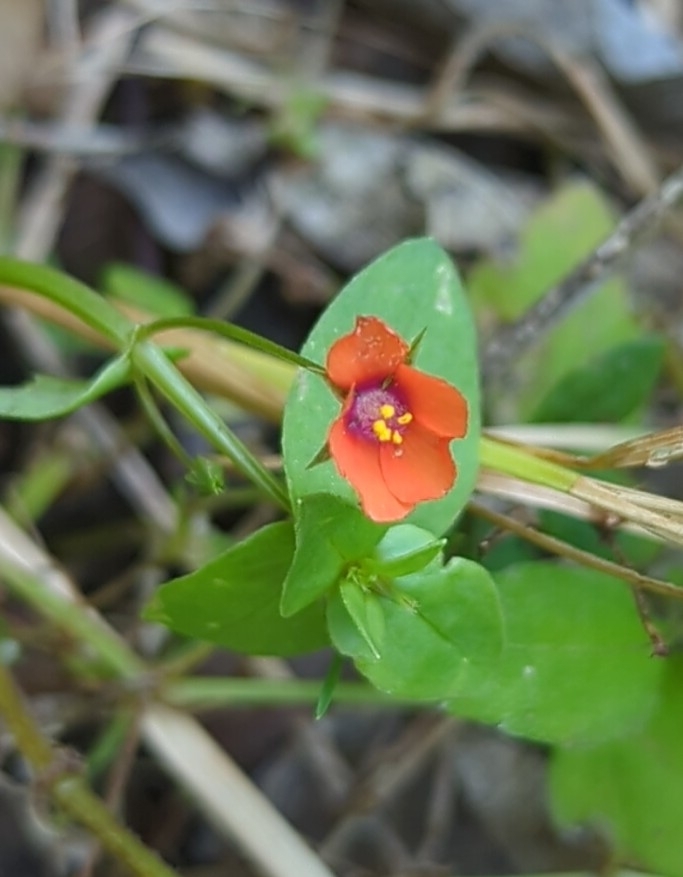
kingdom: Plantae
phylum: Tracheophyta
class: Magnoliopsida
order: Ericales
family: Primulaceae
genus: Lysimachia
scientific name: Lysimachia arvensis
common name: Scarlet pimpernel
